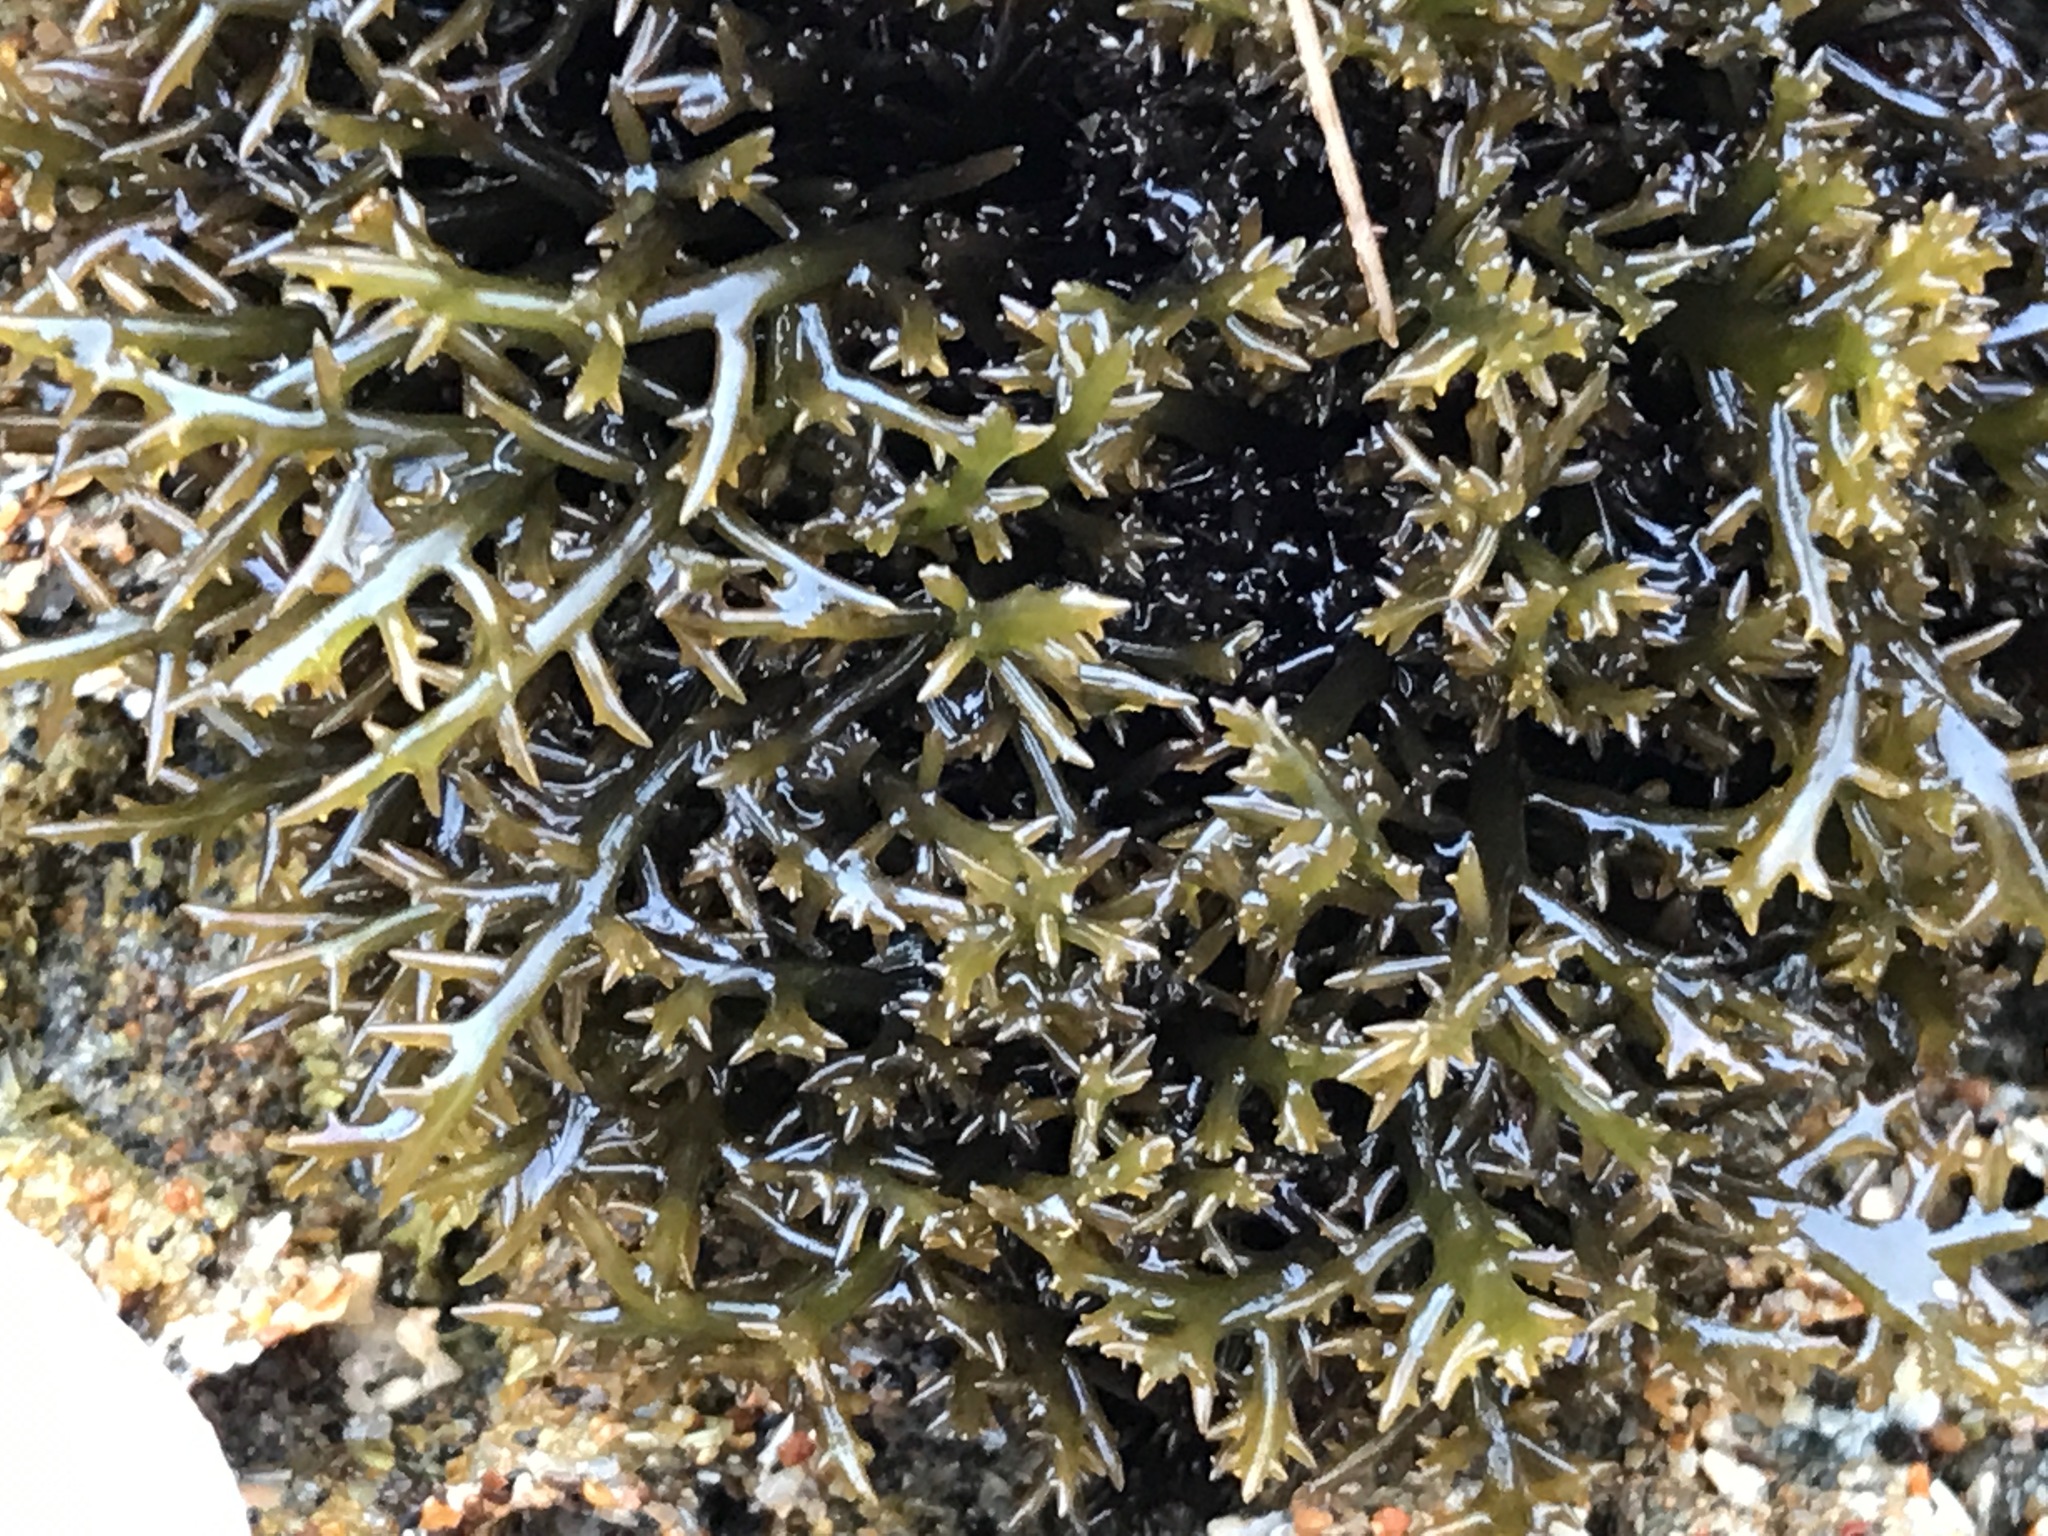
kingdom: Plantae
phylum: Rhodophyta
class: Florideophyceae
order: Gigartinales
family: Gigartinaceae
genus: Chondracanthus
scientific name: Chondracanthus canaliculatus
